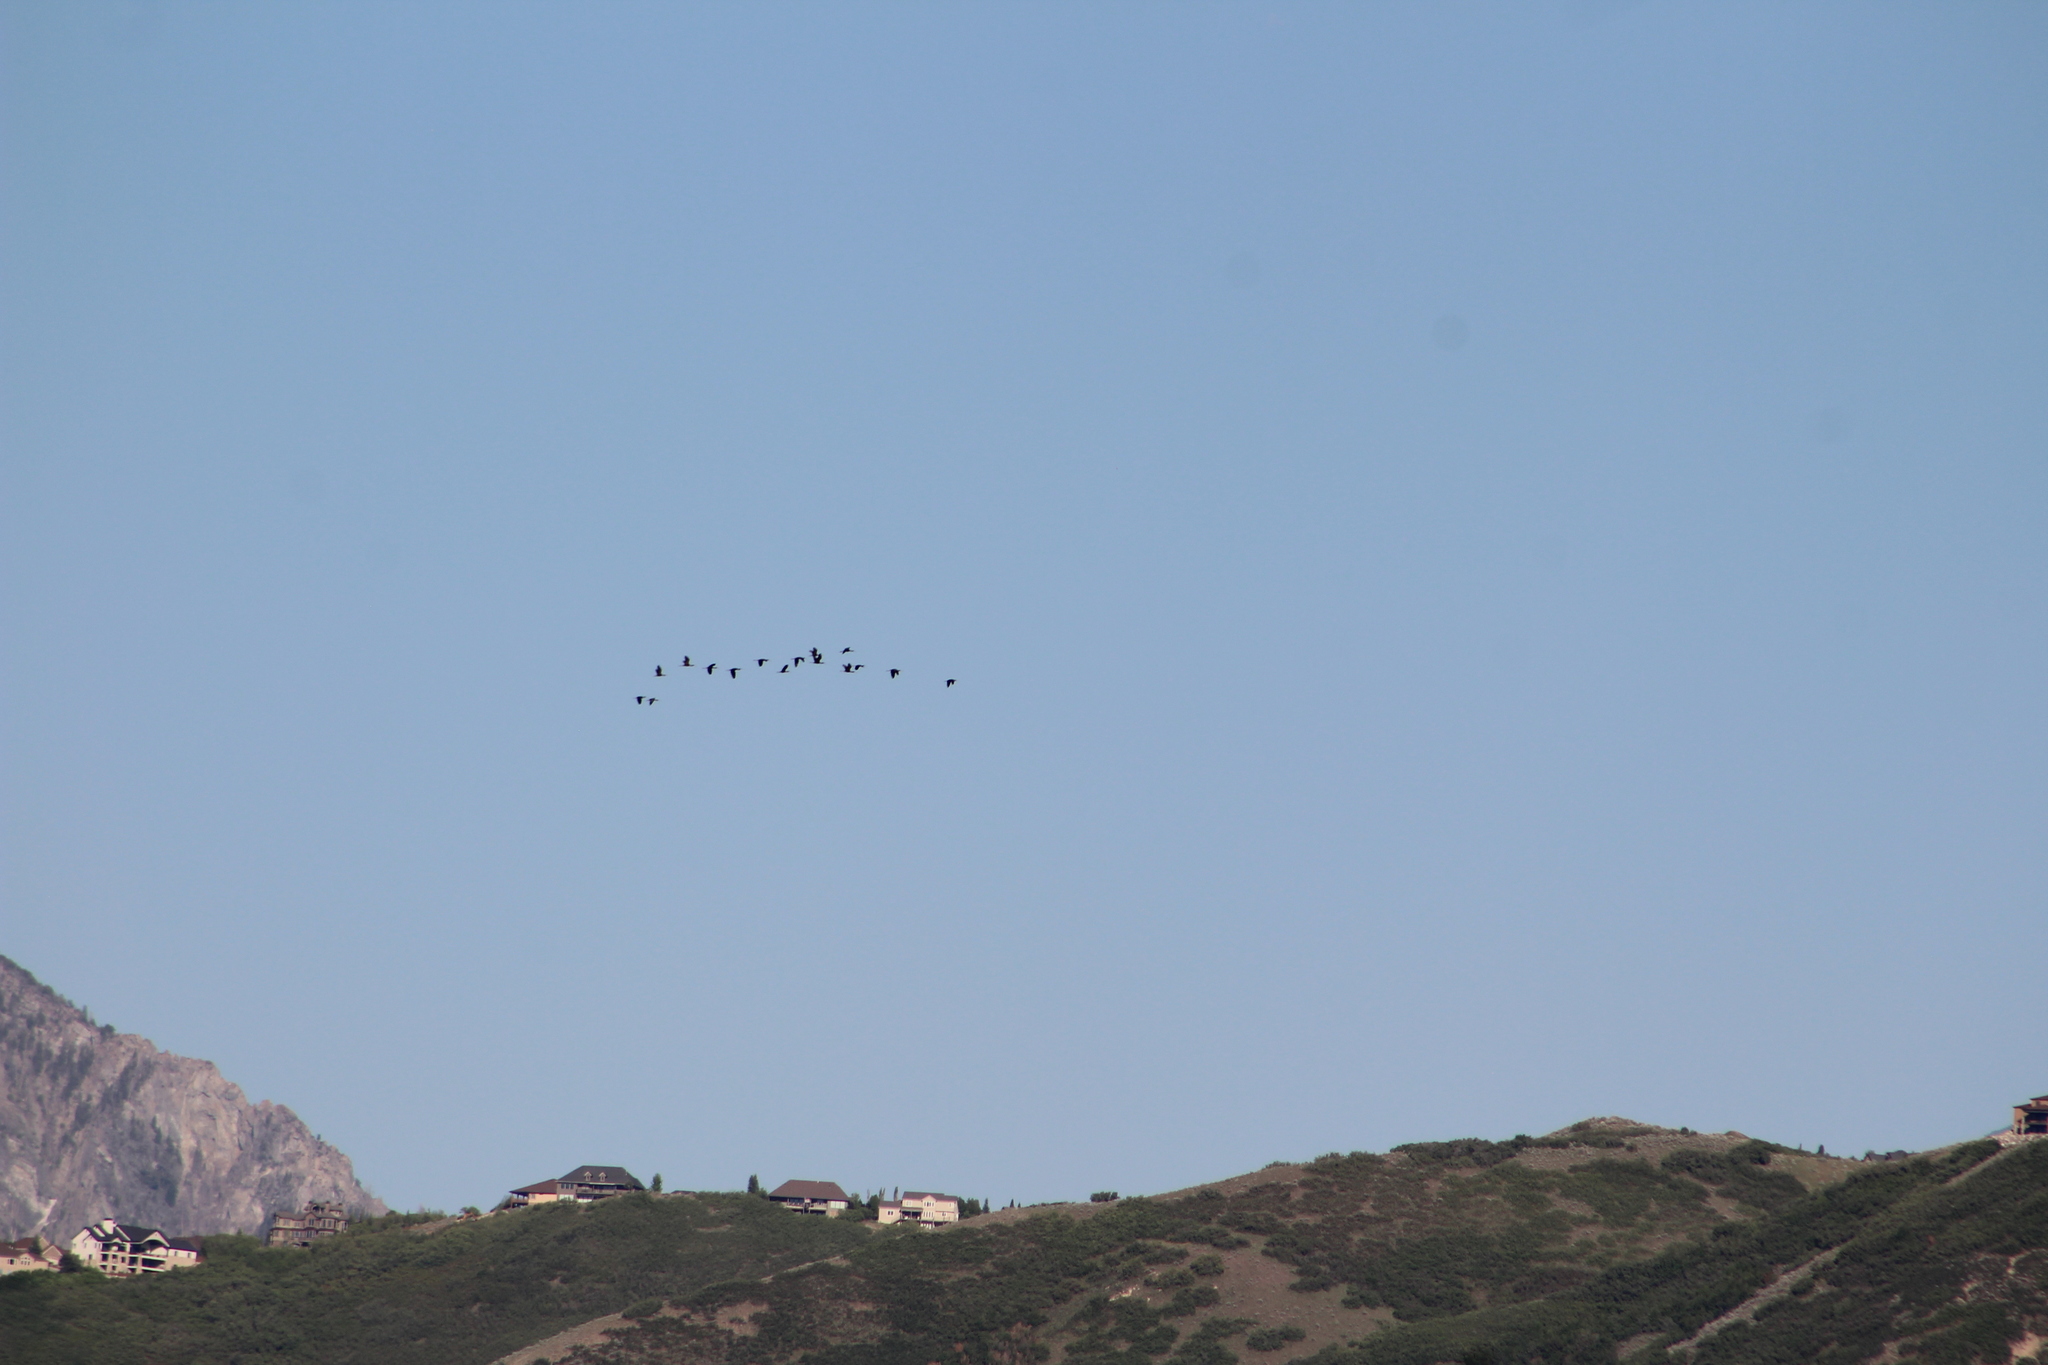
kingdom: Animalia
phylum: Chordata
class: Aves
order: Pelecaniformes
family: Threskiornithidae
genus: Plegadis
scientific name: Plegadis chihi
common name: White-faced ibis
